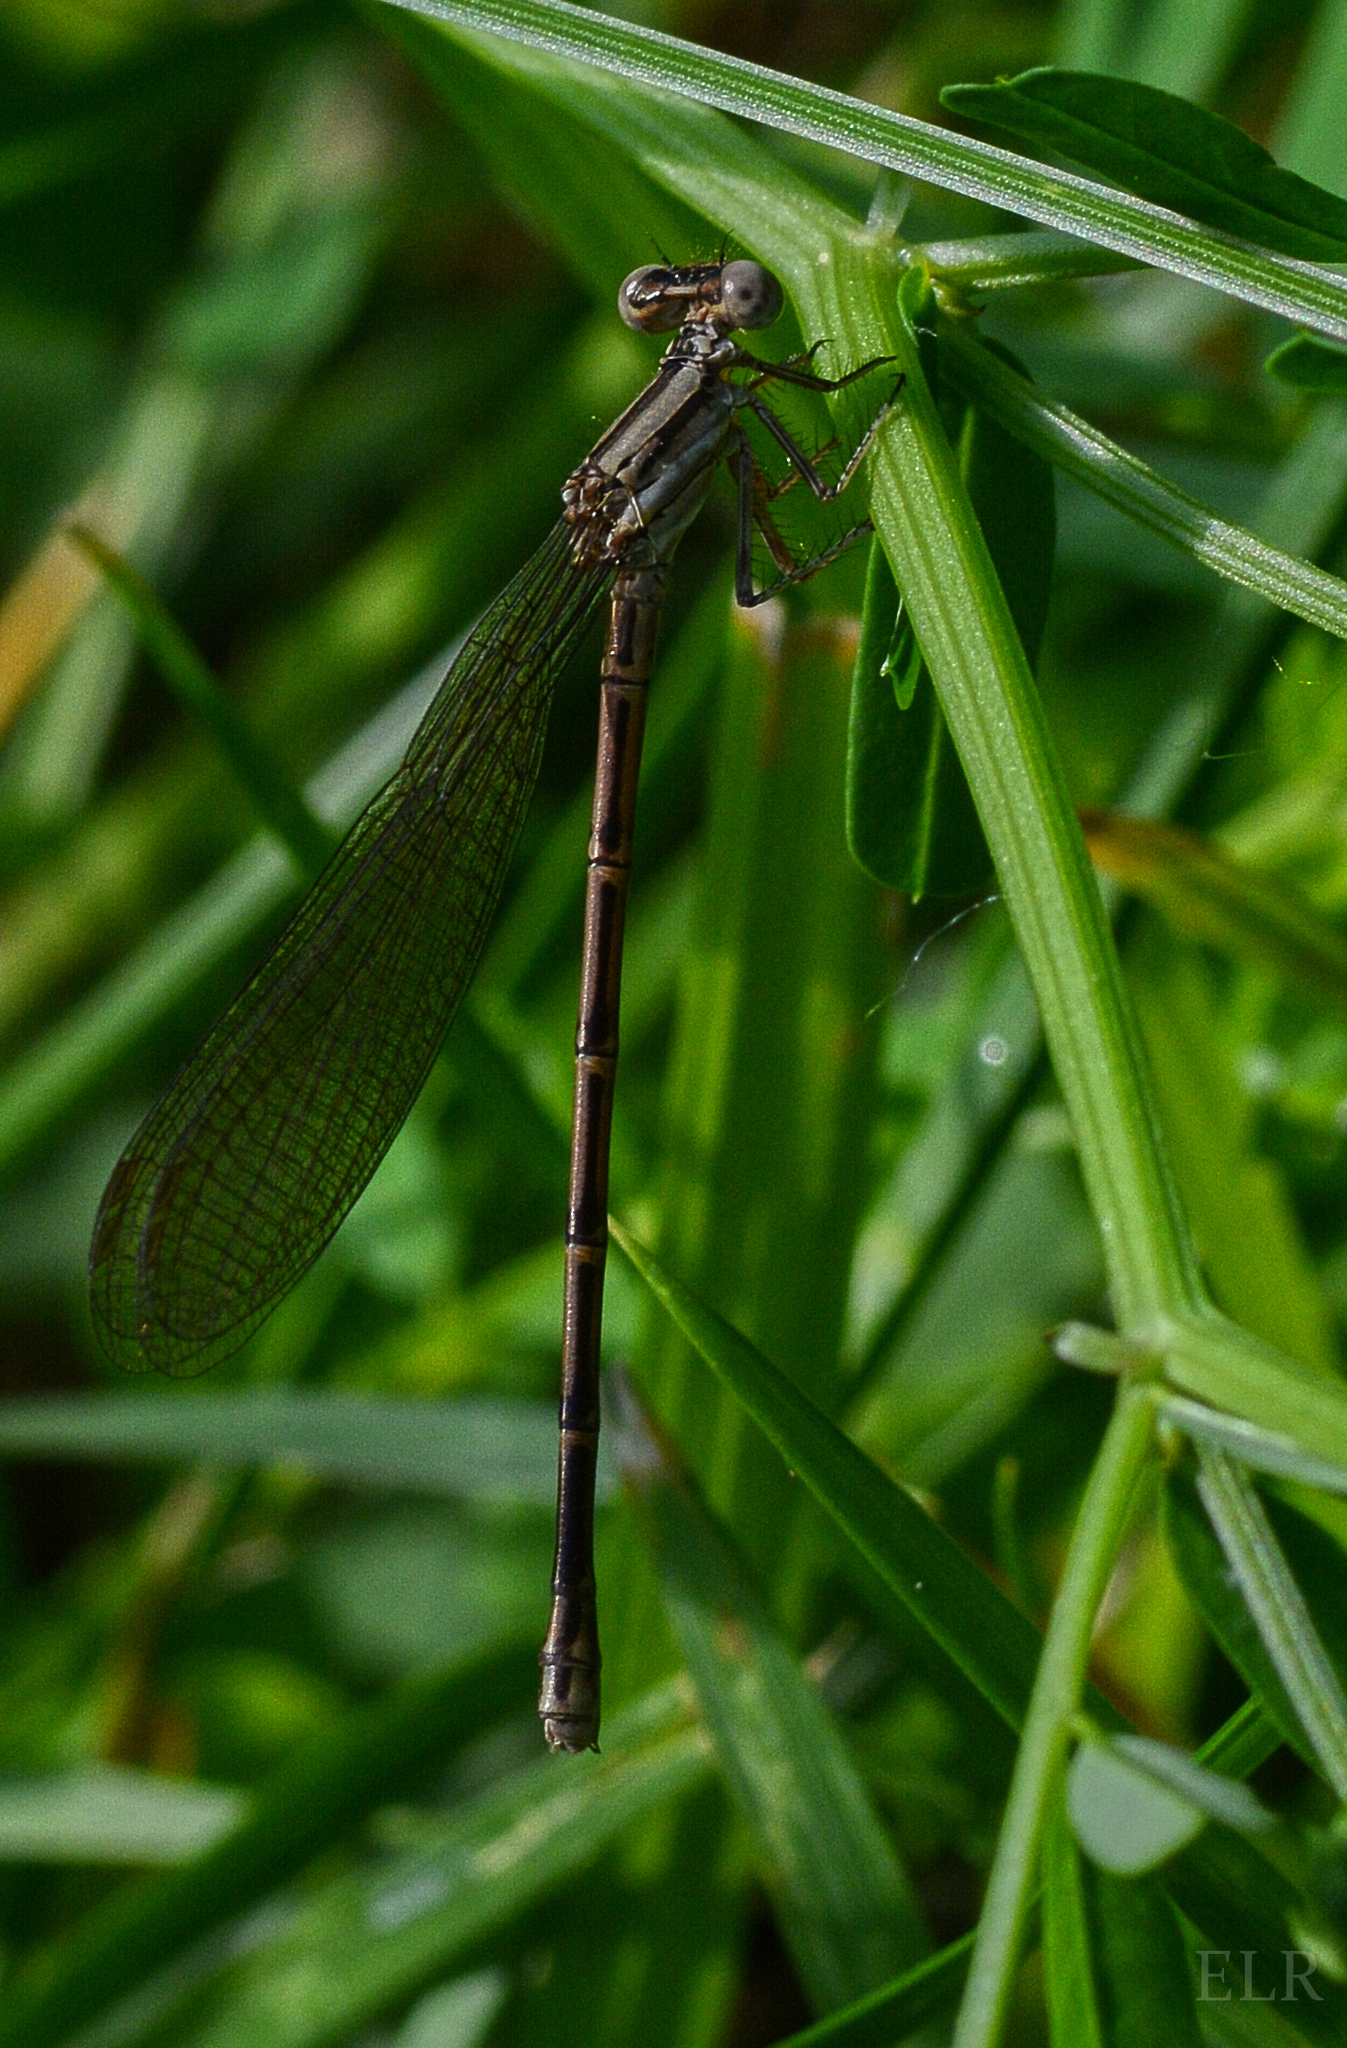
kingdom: Animalia
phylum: Arthropoda
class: Insecta
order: Odonata
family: Coenagrionidae
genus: Argia
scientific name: Argia fumipennis
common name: Variable dancer
